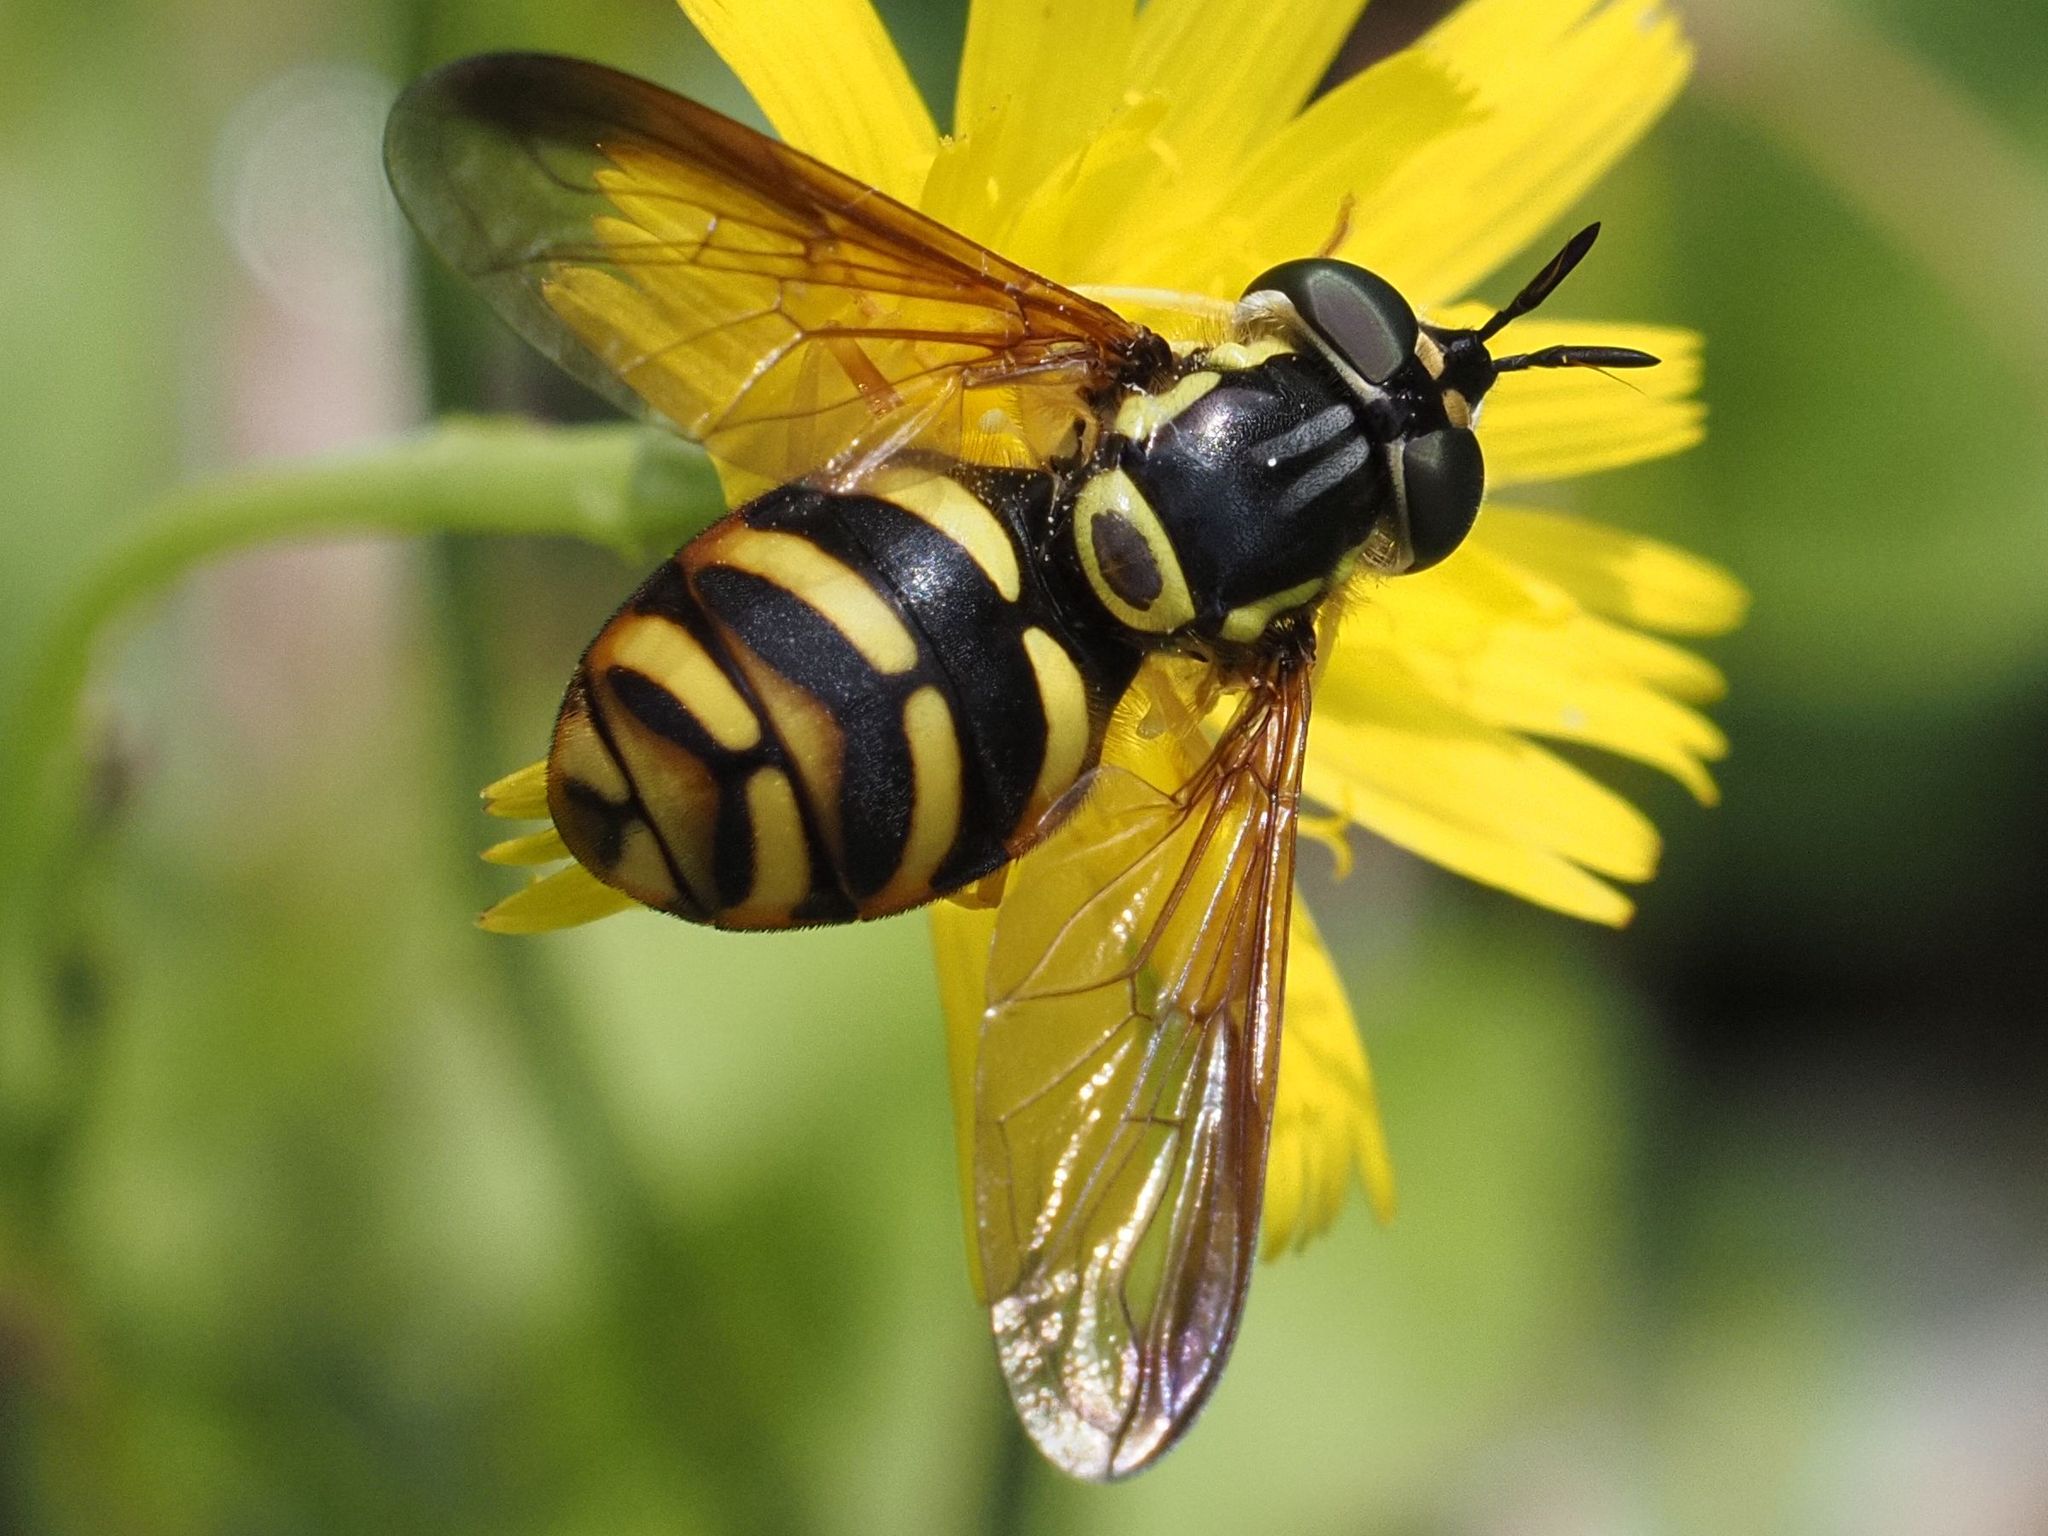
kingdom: Animalia
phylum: Arthropoda
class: Insecta
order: Diptera
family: Syrphidae
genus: Chrysotoxum
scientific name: Chrysotoxum intermedium
